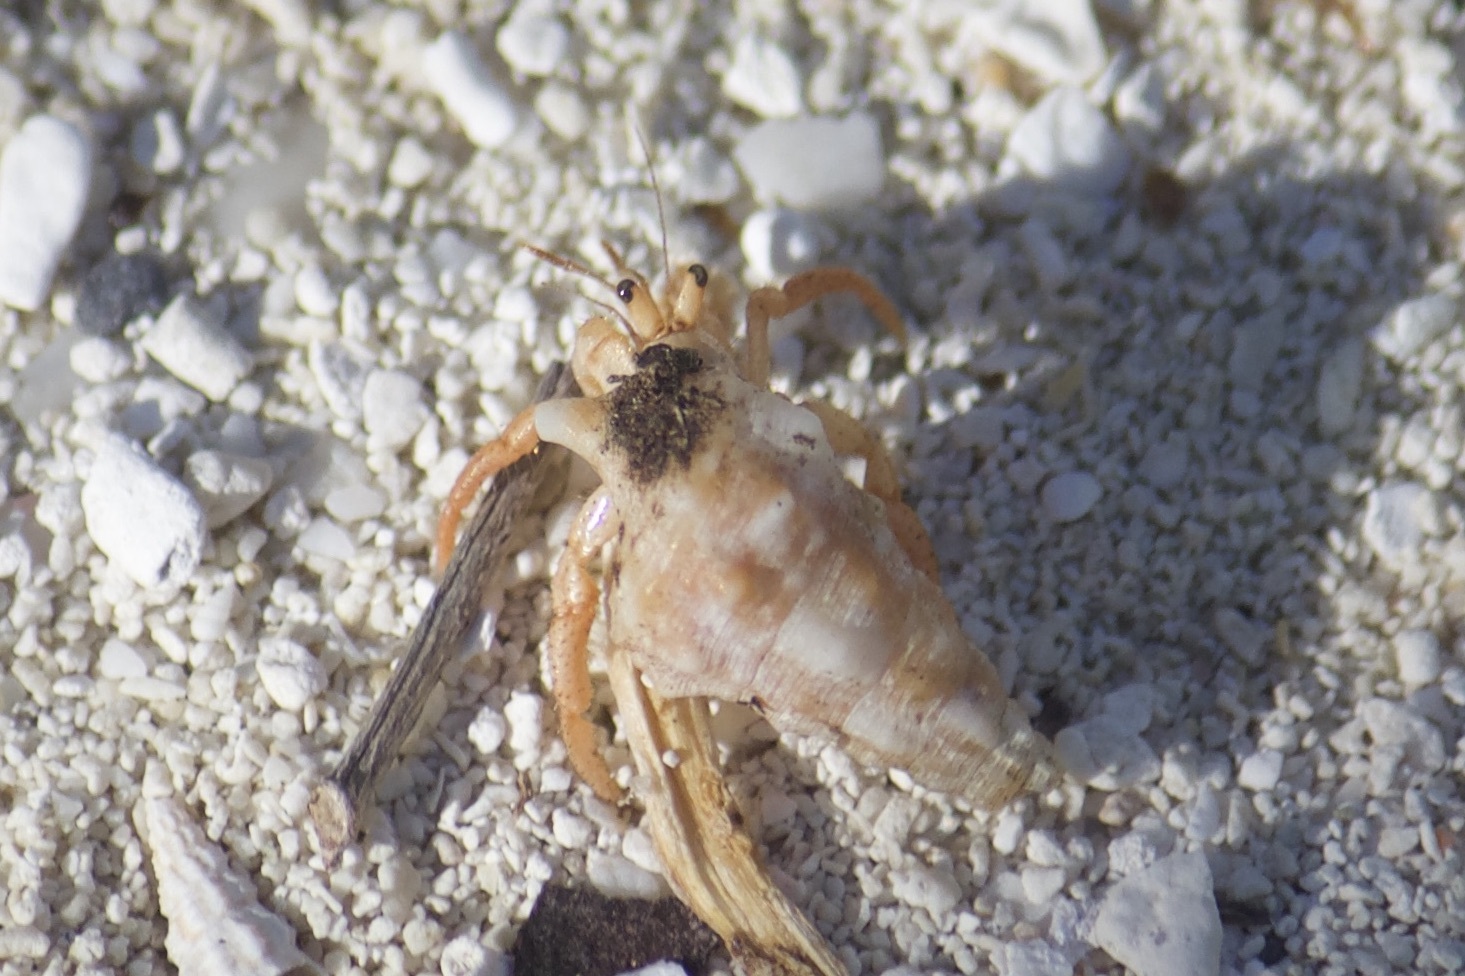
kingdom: Animalia
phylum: Arthropoda
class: Malacostraca
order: Decapoda
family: Coenobitidae
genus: Coenobita
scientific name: Coenobita clypeatus
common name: Caribbean hermit crab
